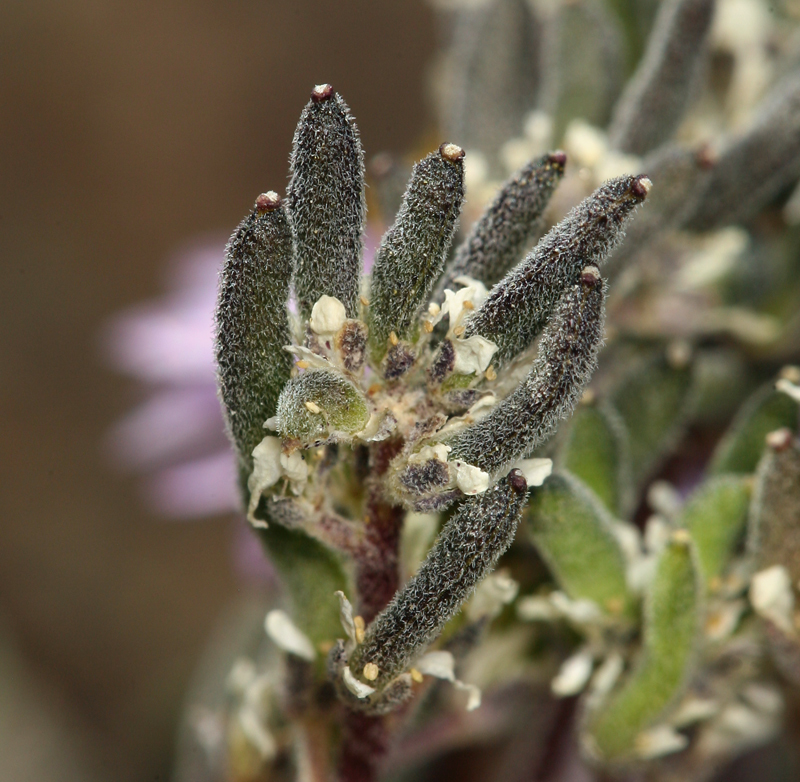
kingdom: Plantae
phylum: Tracheophyta
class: Magnoliopsida
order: Brassicales
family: Brassicaceae
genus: Draba
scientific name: Draba californica
